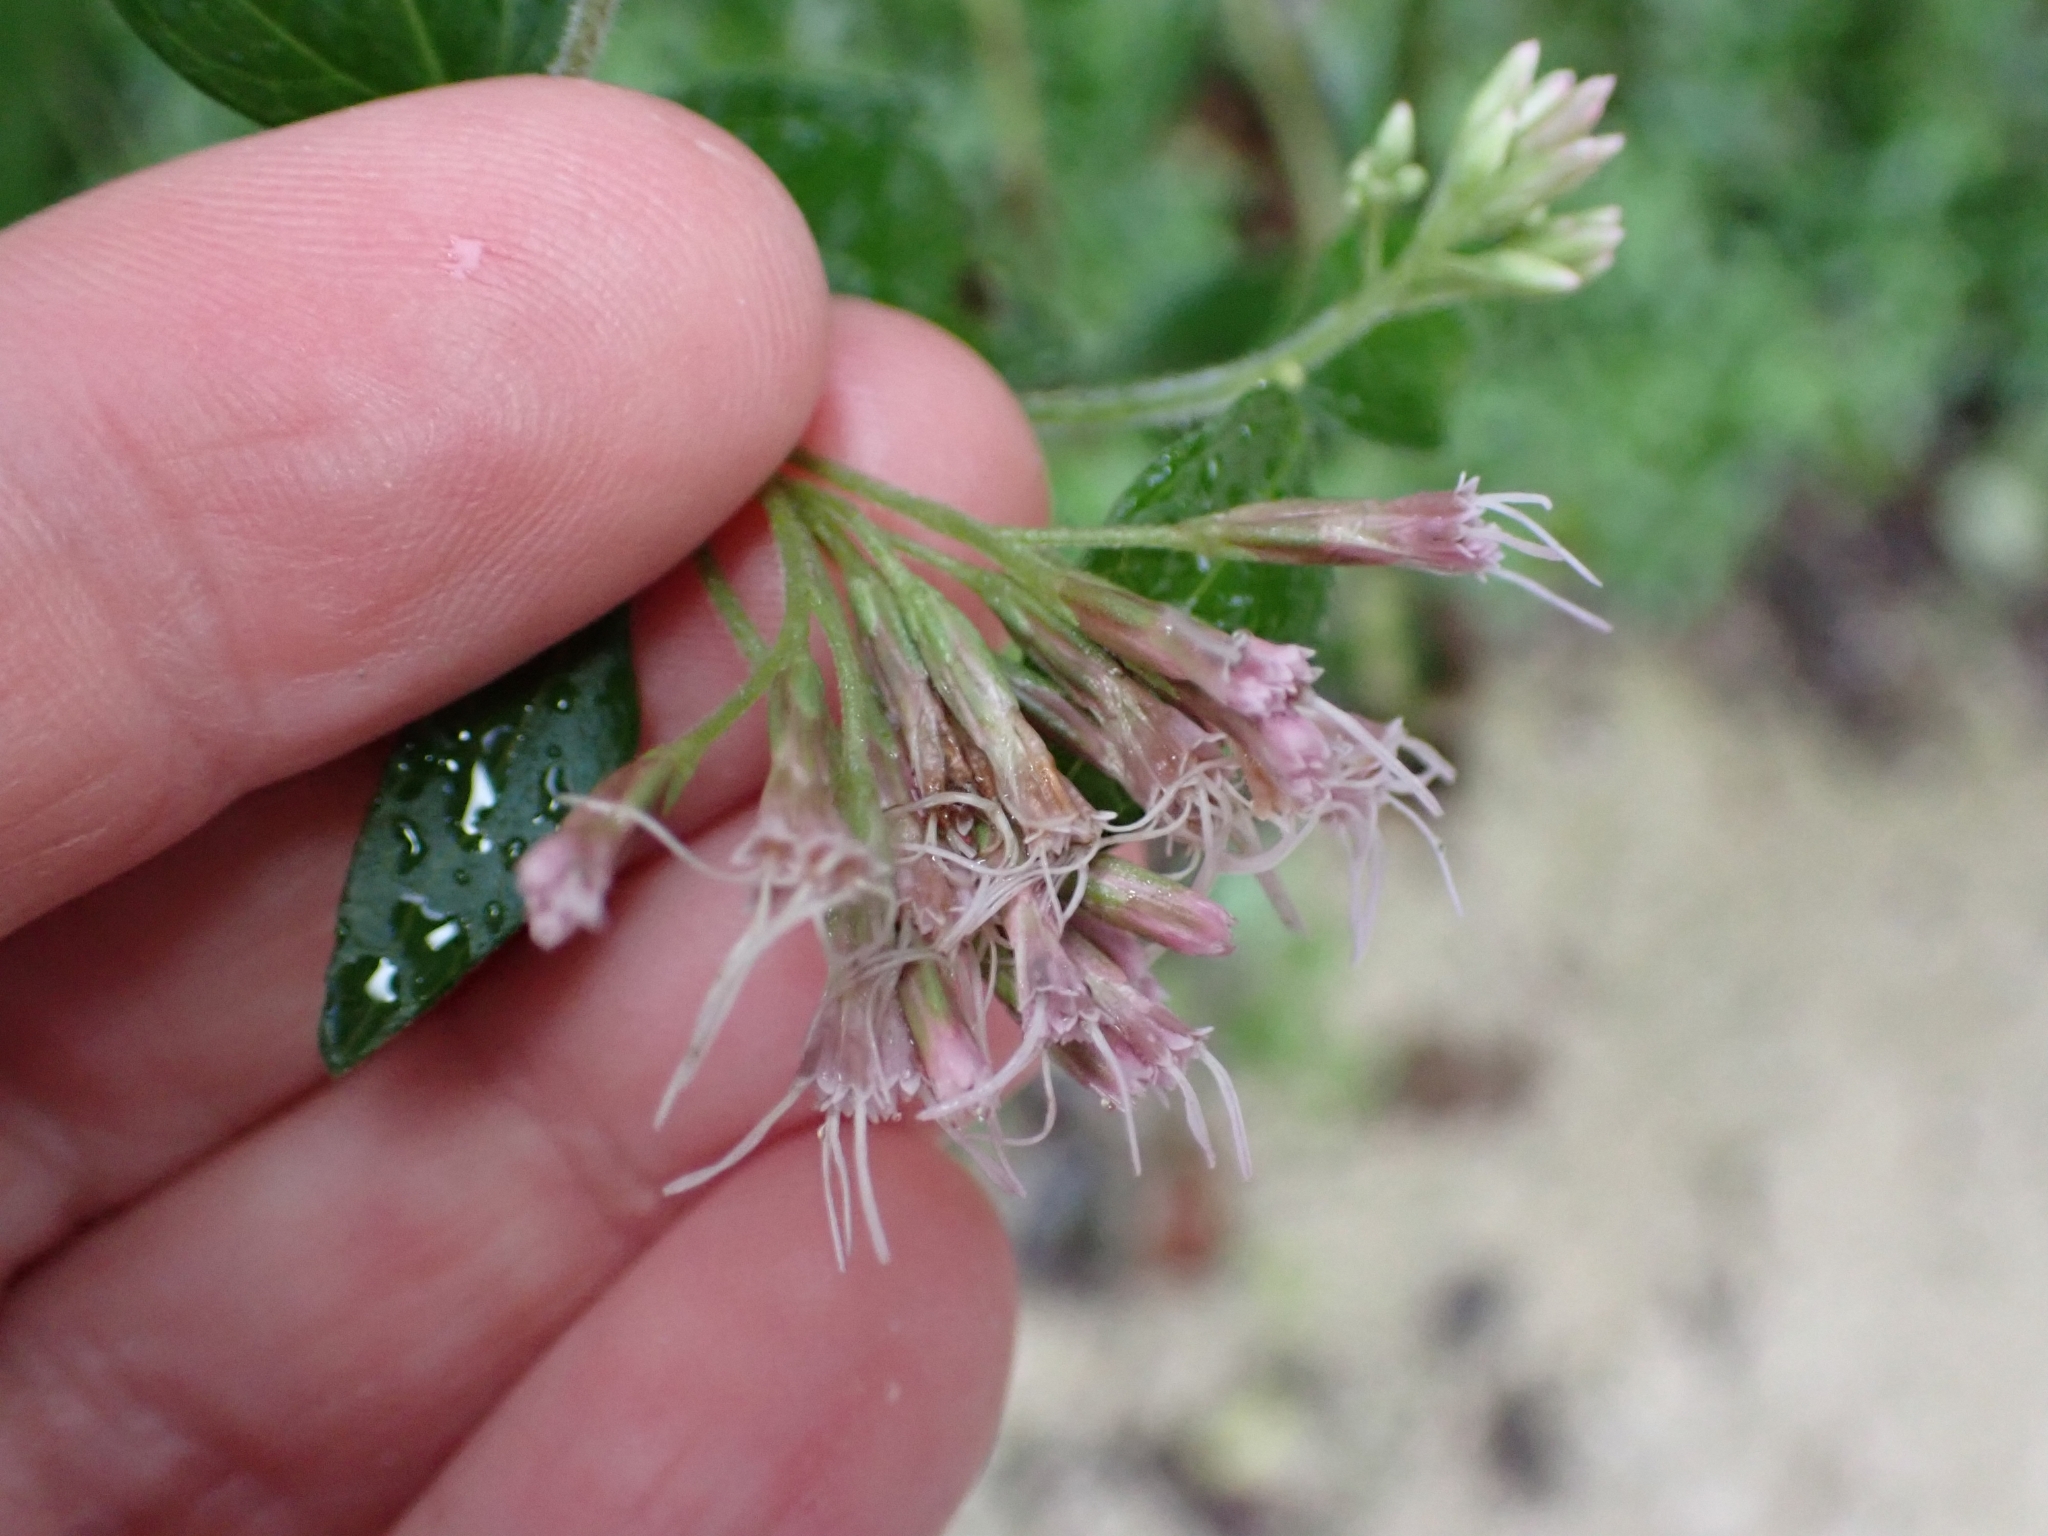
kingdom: Plantae
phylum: Tracheophyta
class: Magnoliopsida
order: Asterales
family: Asteraceae
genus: Eupatorium
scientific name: Eupatorium cannabinum
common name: Hemp-agrimony
